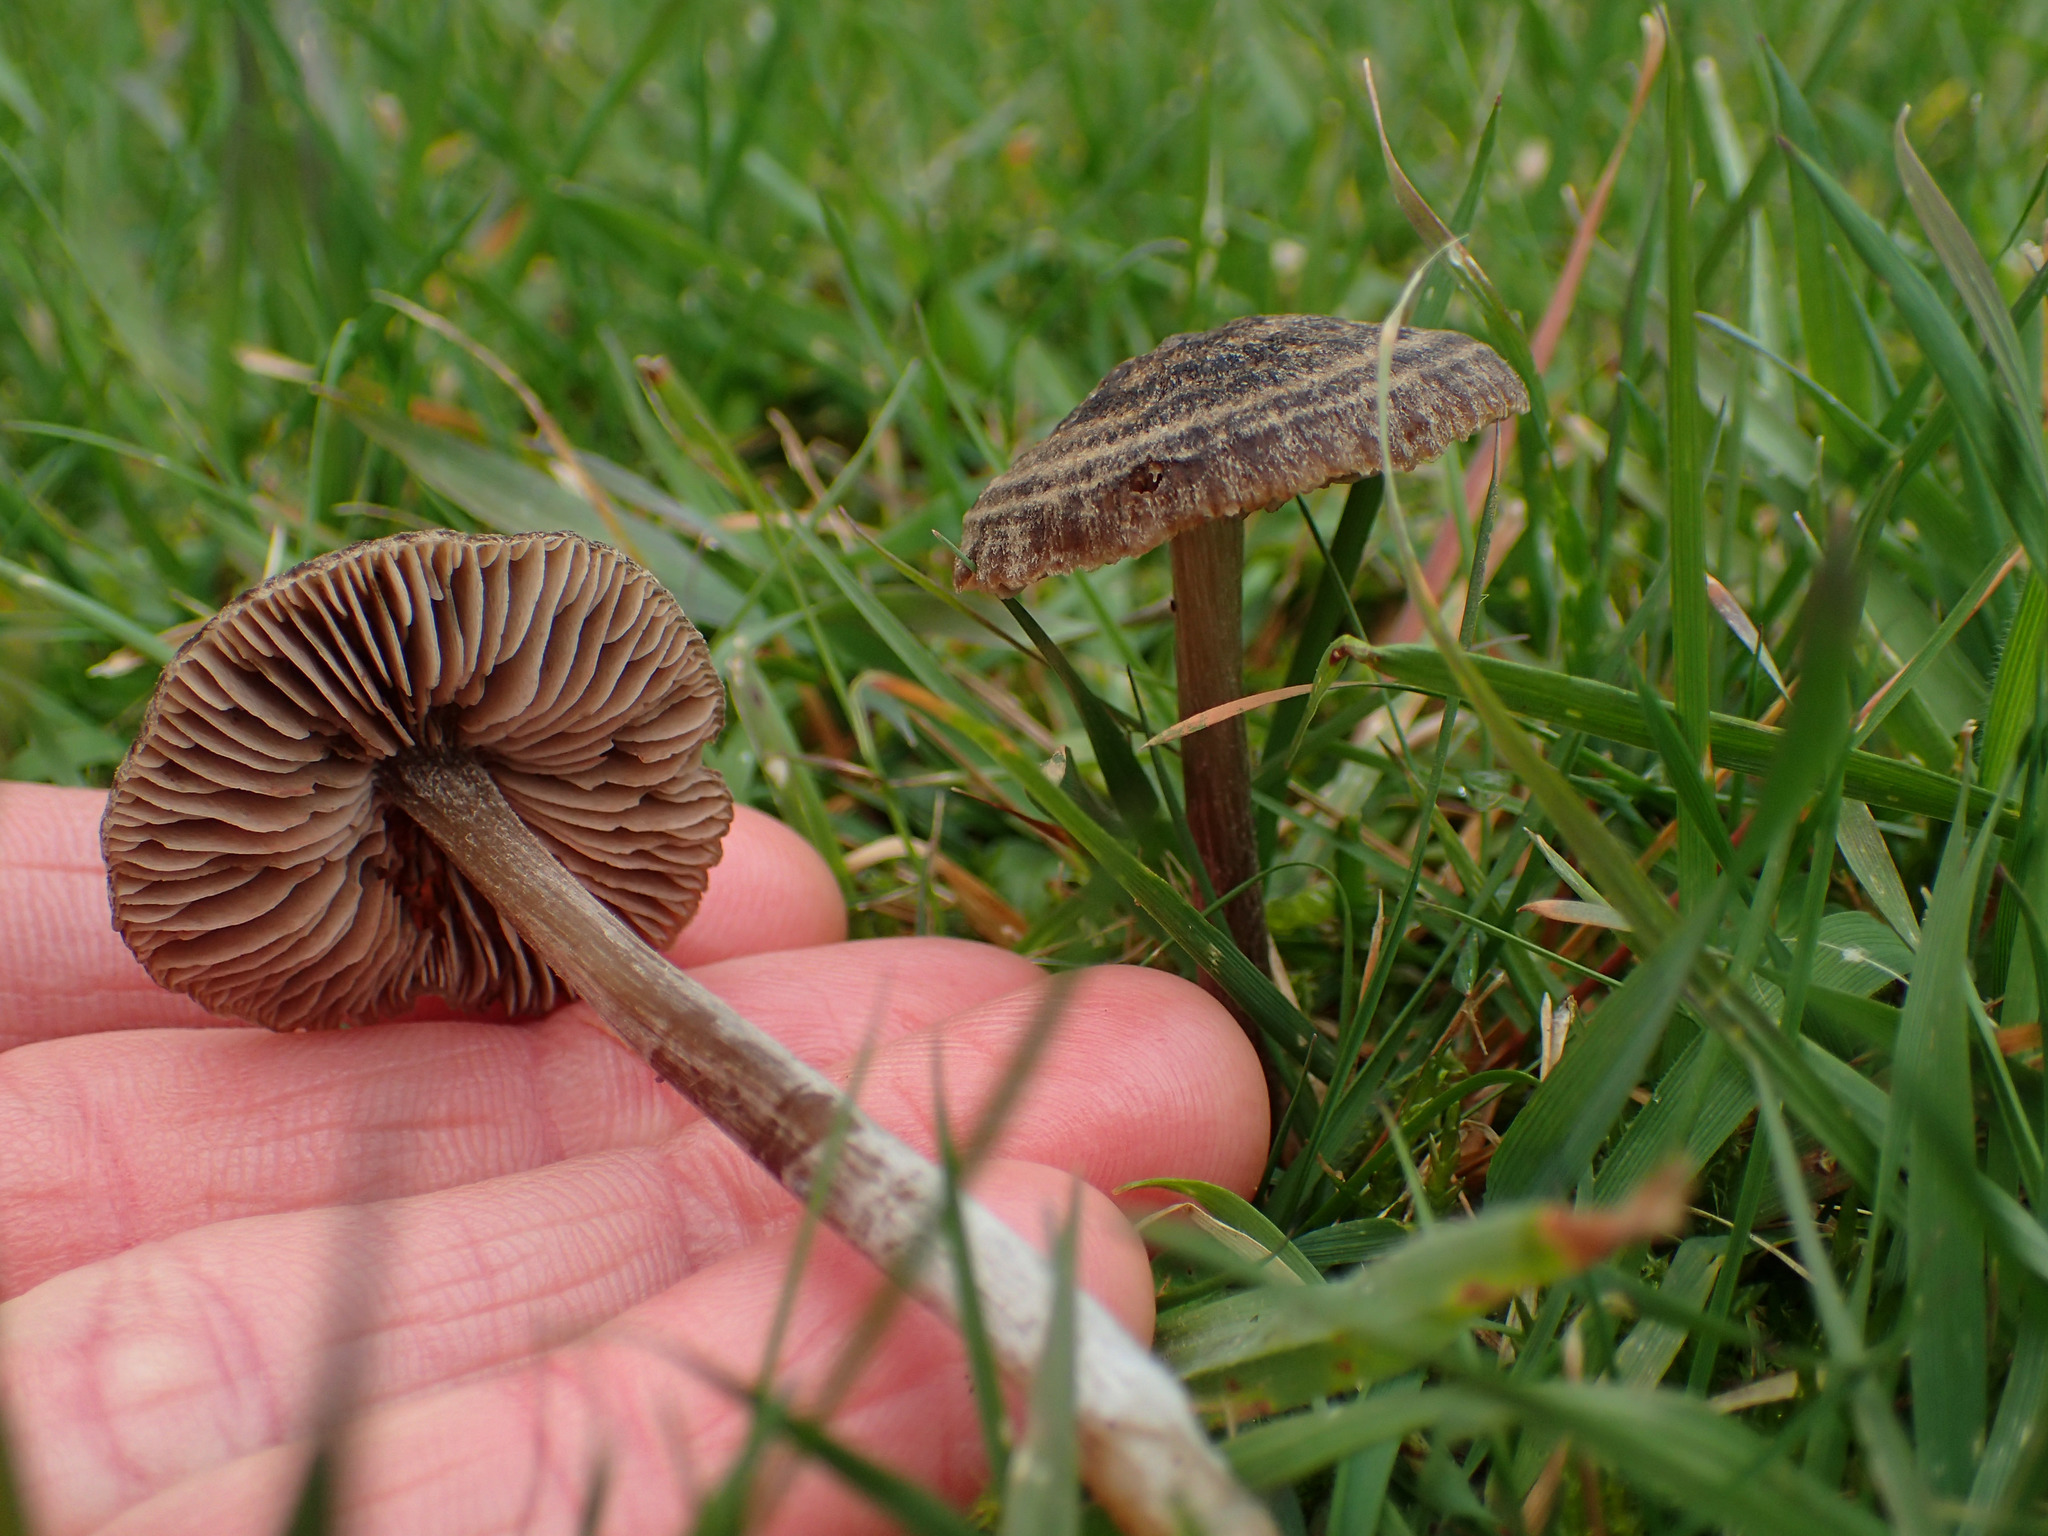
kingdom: Fungi
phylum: Basidiomycota
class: Agaricomycetes
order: Agaricales
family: Entolomataceae
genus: Entoloma
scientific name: Entoloma perzonatum
